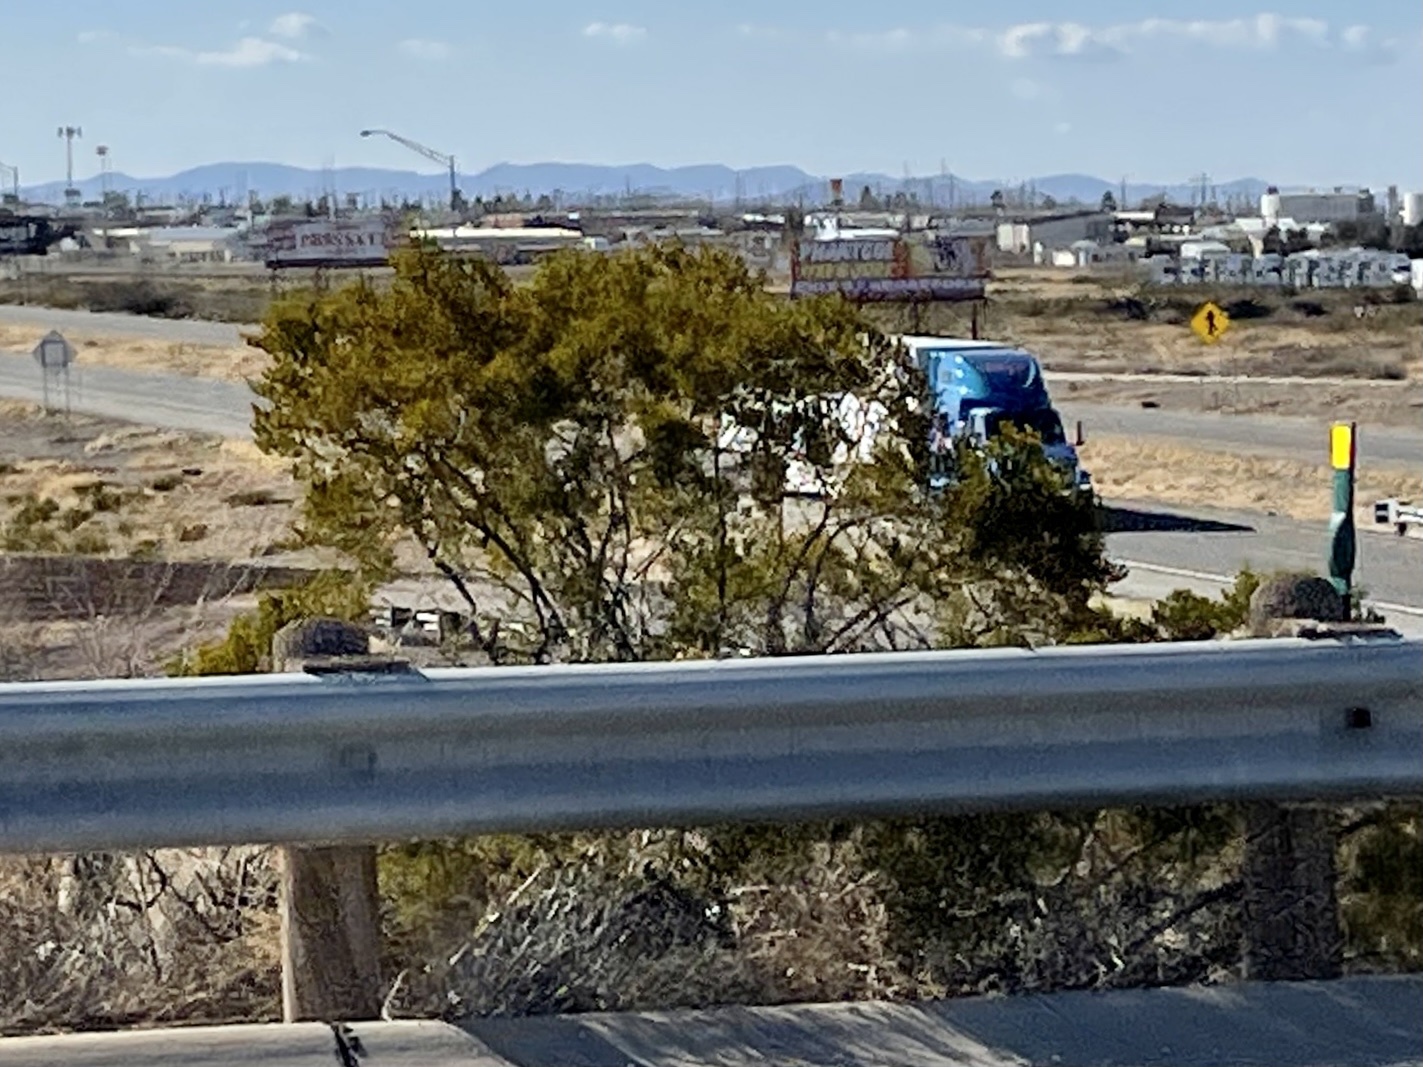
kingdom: Plantae
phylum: Tracheophyta
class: Magnoliopsida
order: Zygophyllales
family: Zygophyllaceae
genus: Larrea
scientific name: Larrea tridentata
